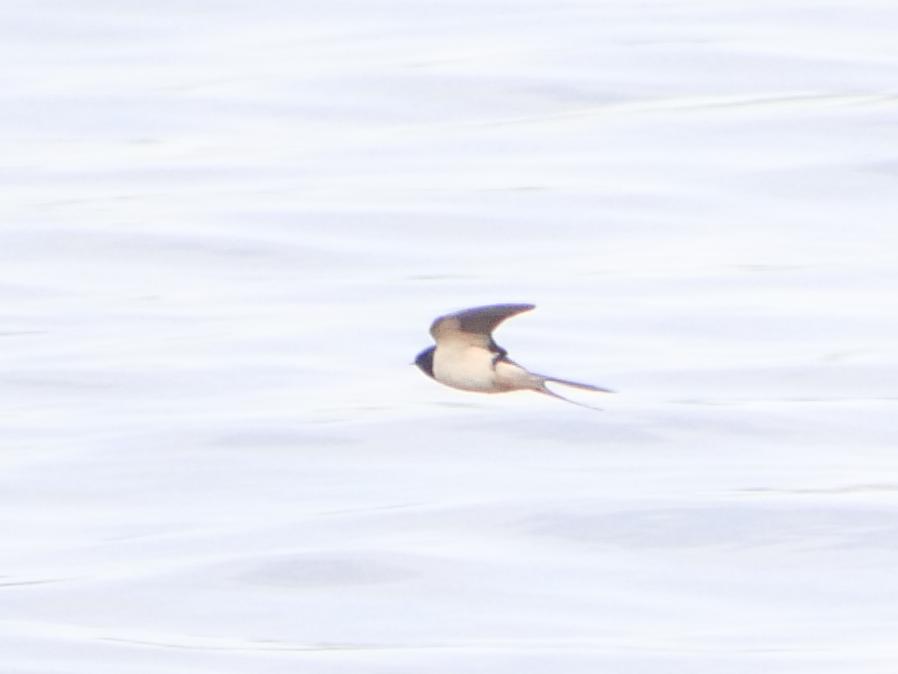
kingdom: Animalia
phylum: Chordata
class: Aves
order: Passeriformes
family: Hirundinidae
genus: Hirundo
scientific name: Hirundo rustica
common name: Barn swallow
